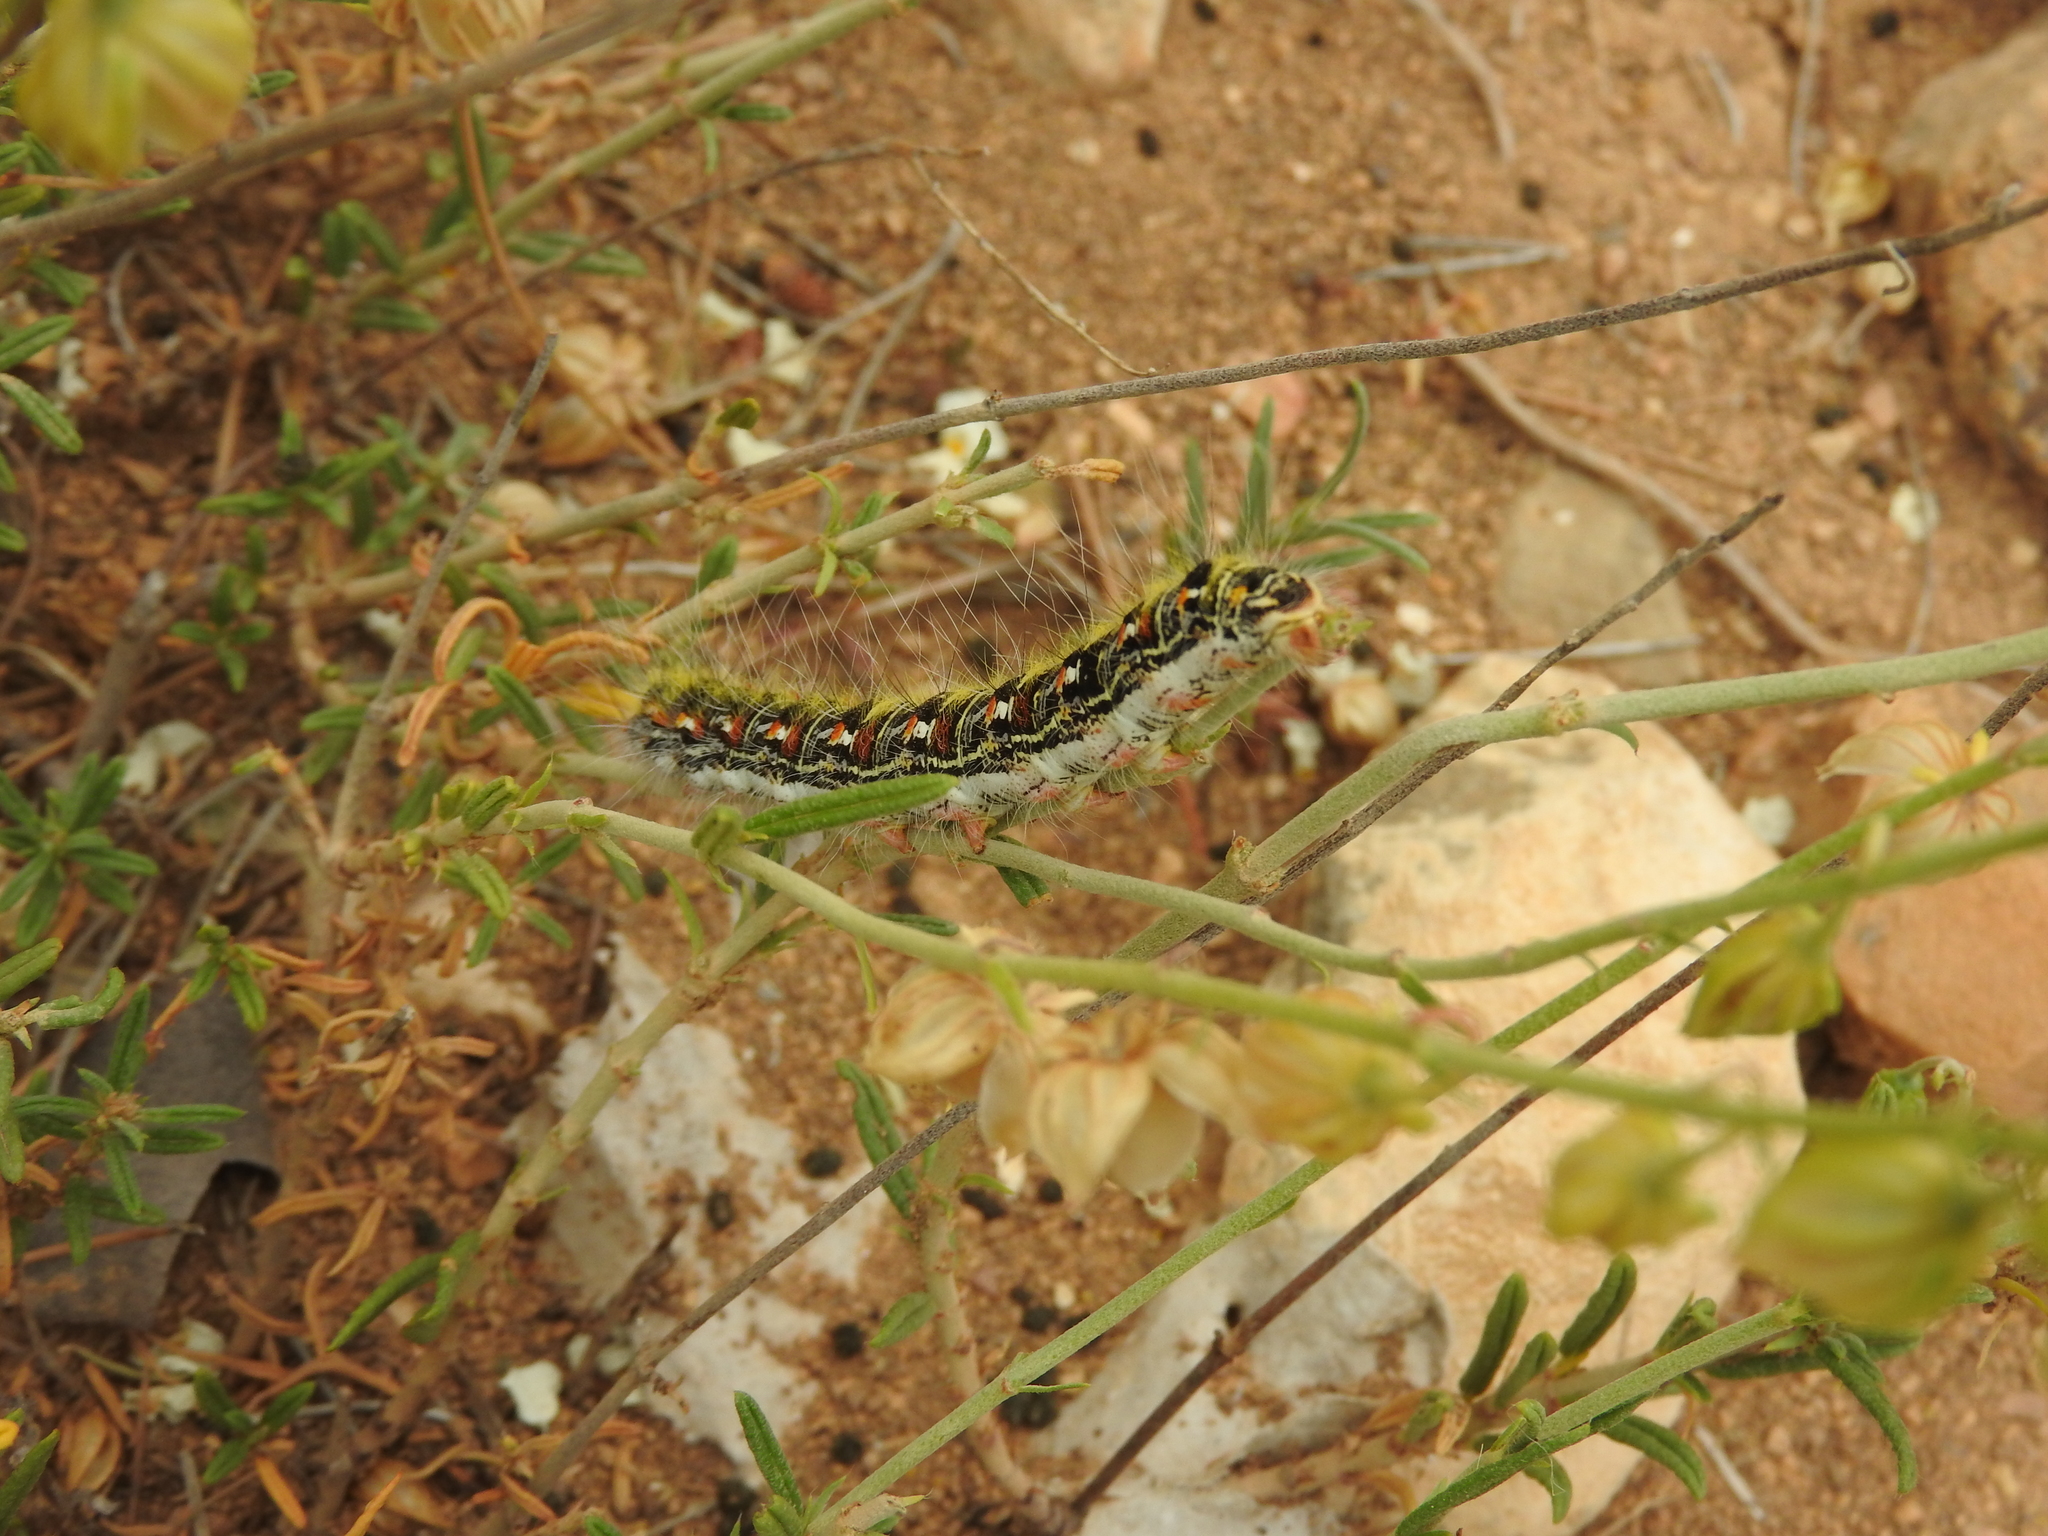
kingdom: Animalia
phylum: Arthropoda
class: Insecta
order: Lepidoptera
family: Lasiocampidae
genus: Psilogaster
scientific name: Psilogaster algeriensis
